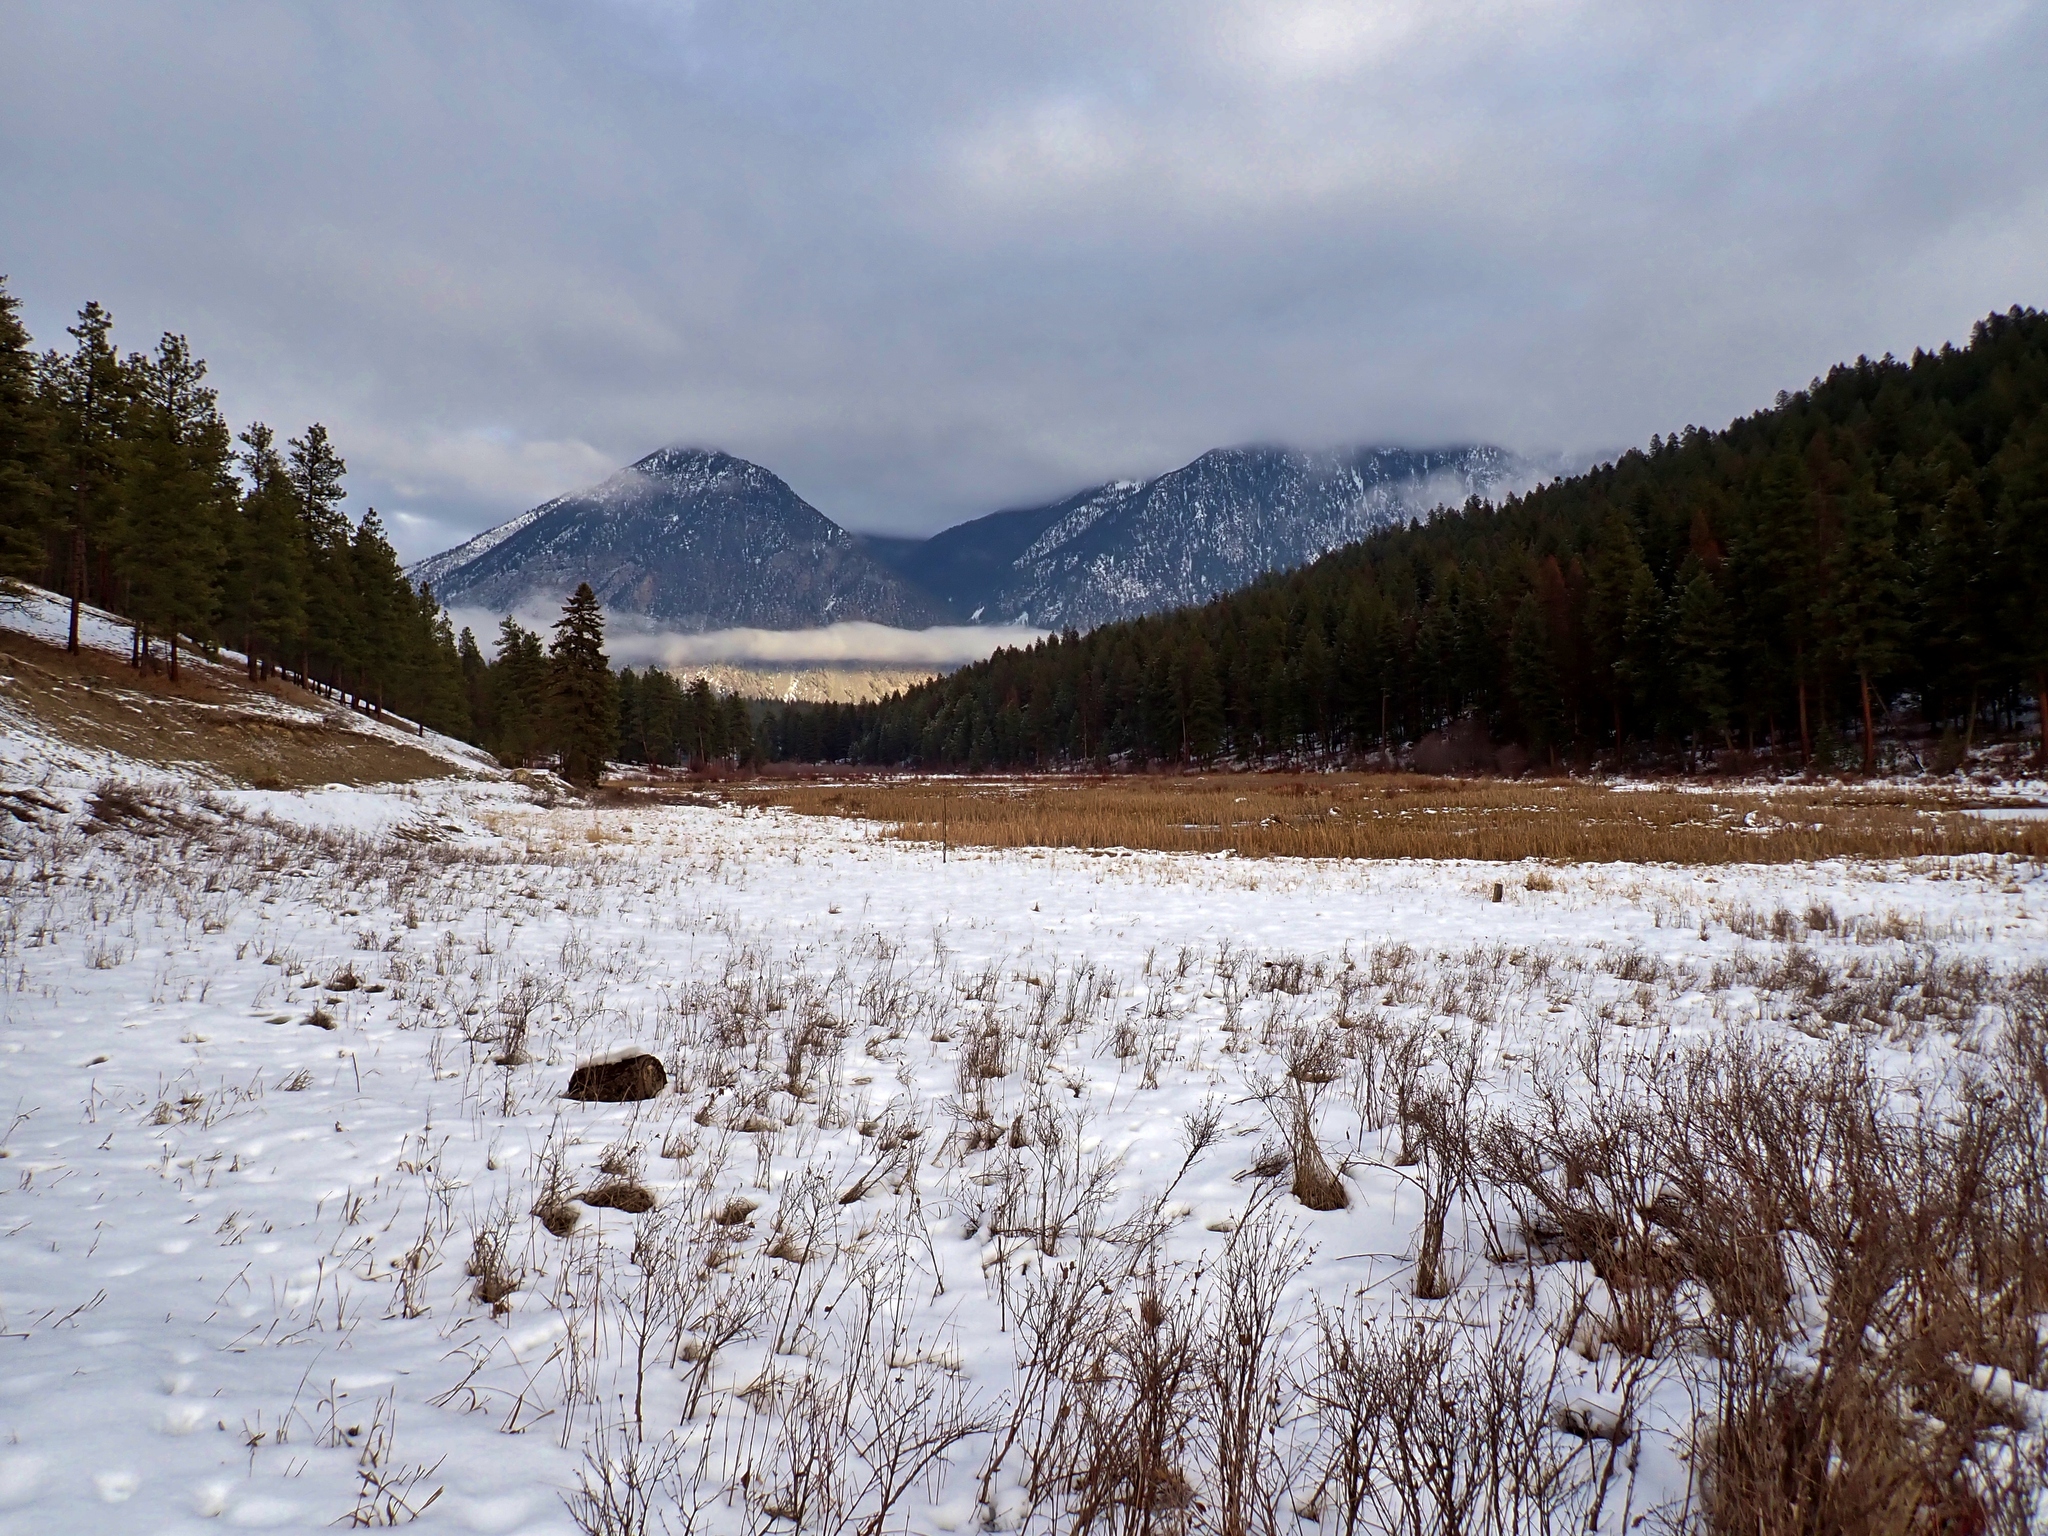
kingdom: Animalia
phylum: Chordata
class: Aves
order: Passeriformes
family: Troglodytidae
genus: Cistothorus
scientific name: Cistothorus palustris
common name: Marsh wren
